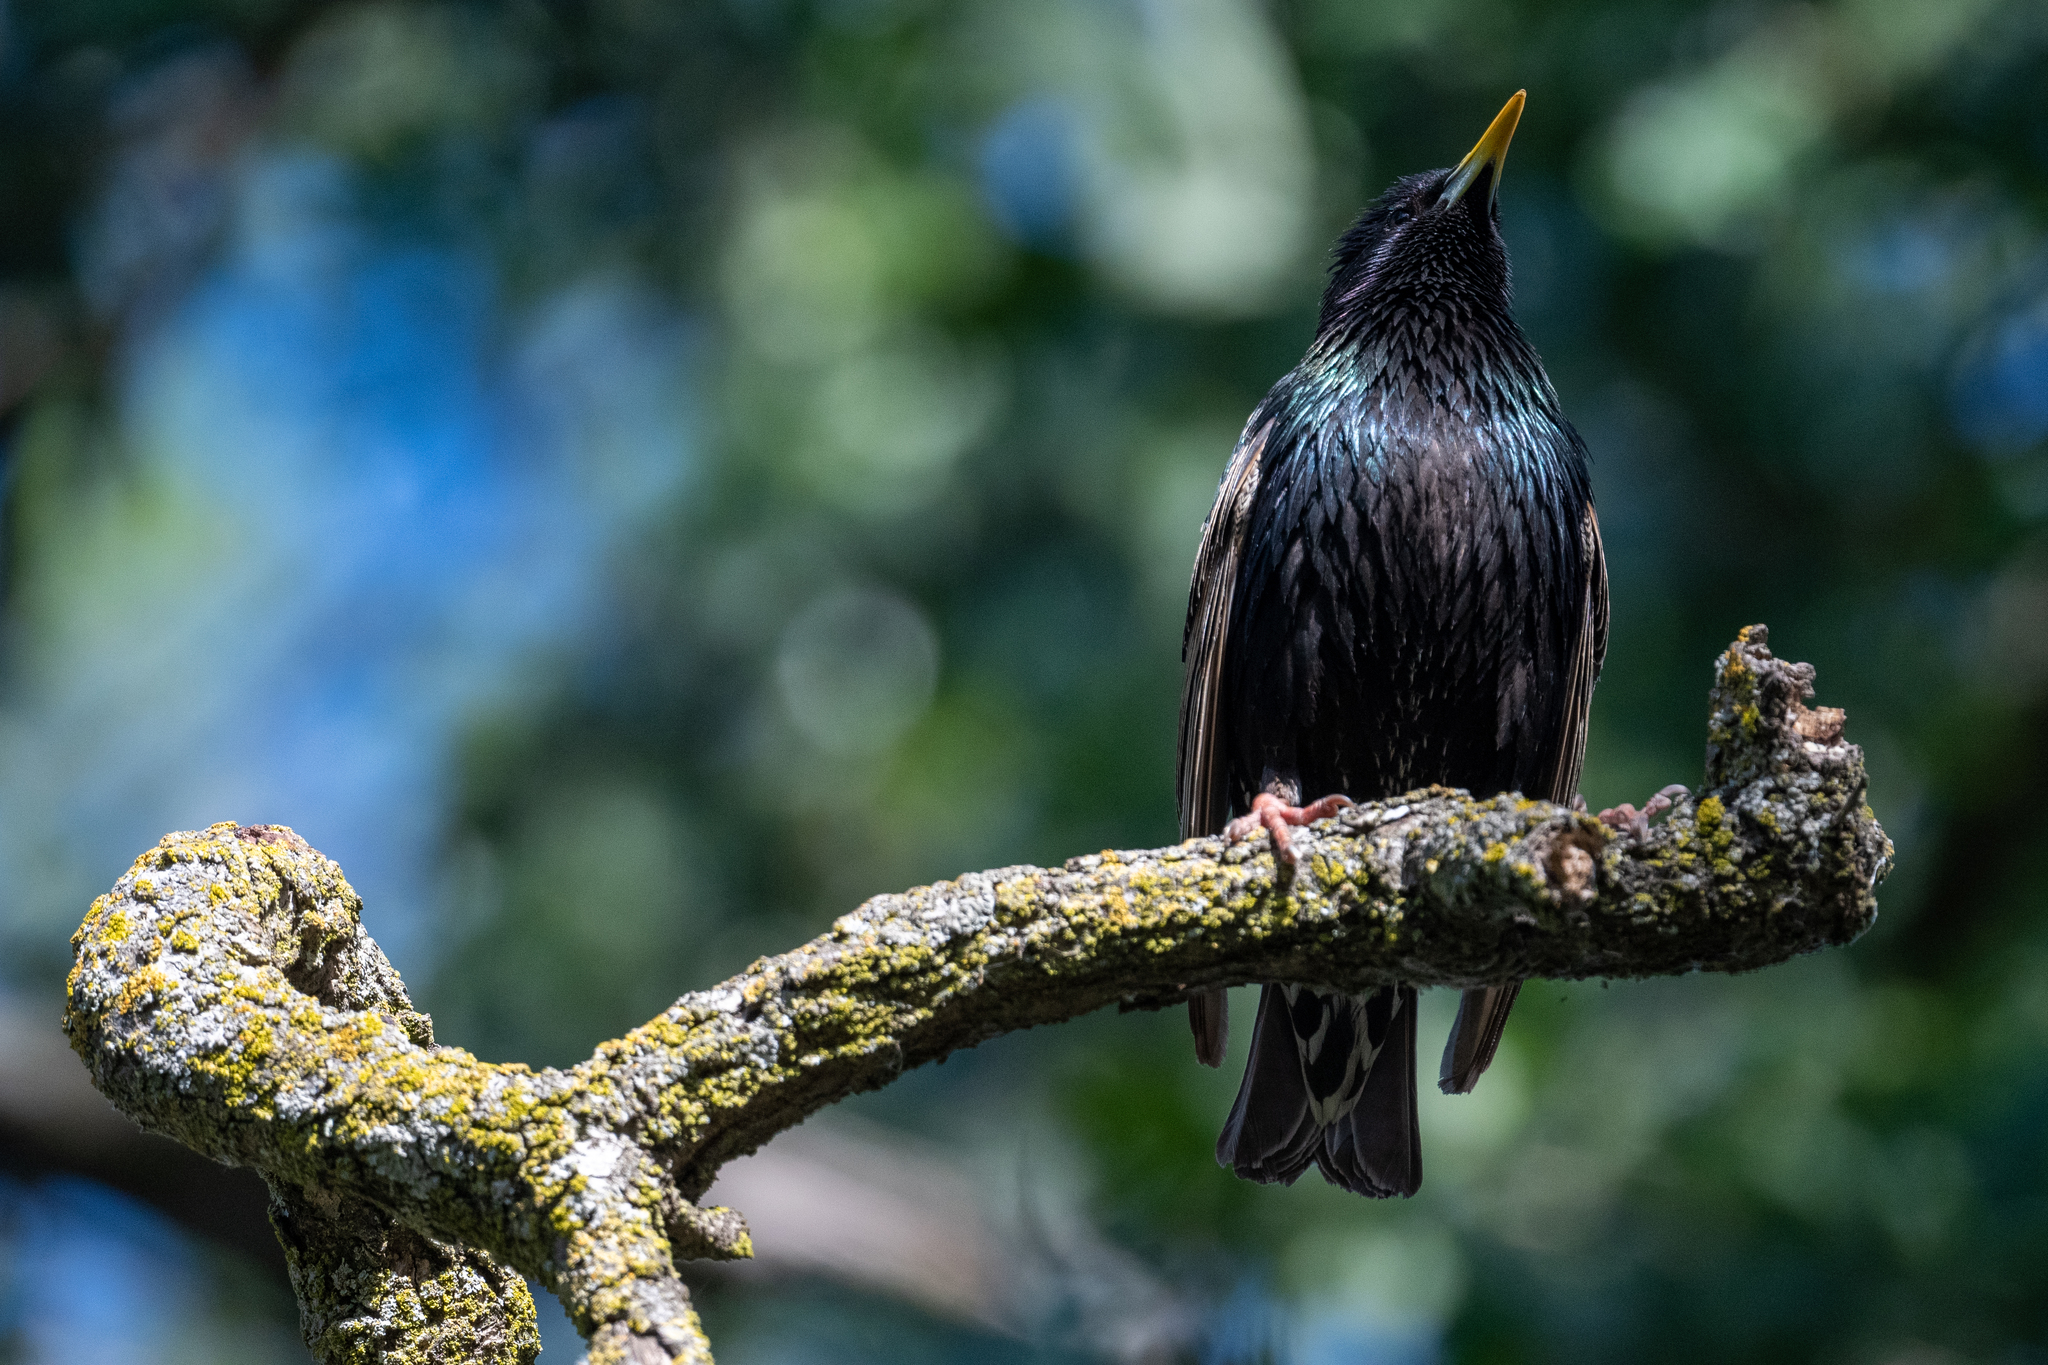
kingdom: Animalia
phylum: Chordata
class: Aves
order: Passeriformes
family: Sturnidae
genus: Sturnus
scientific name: Sturnus vulgaris
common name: Common starling
